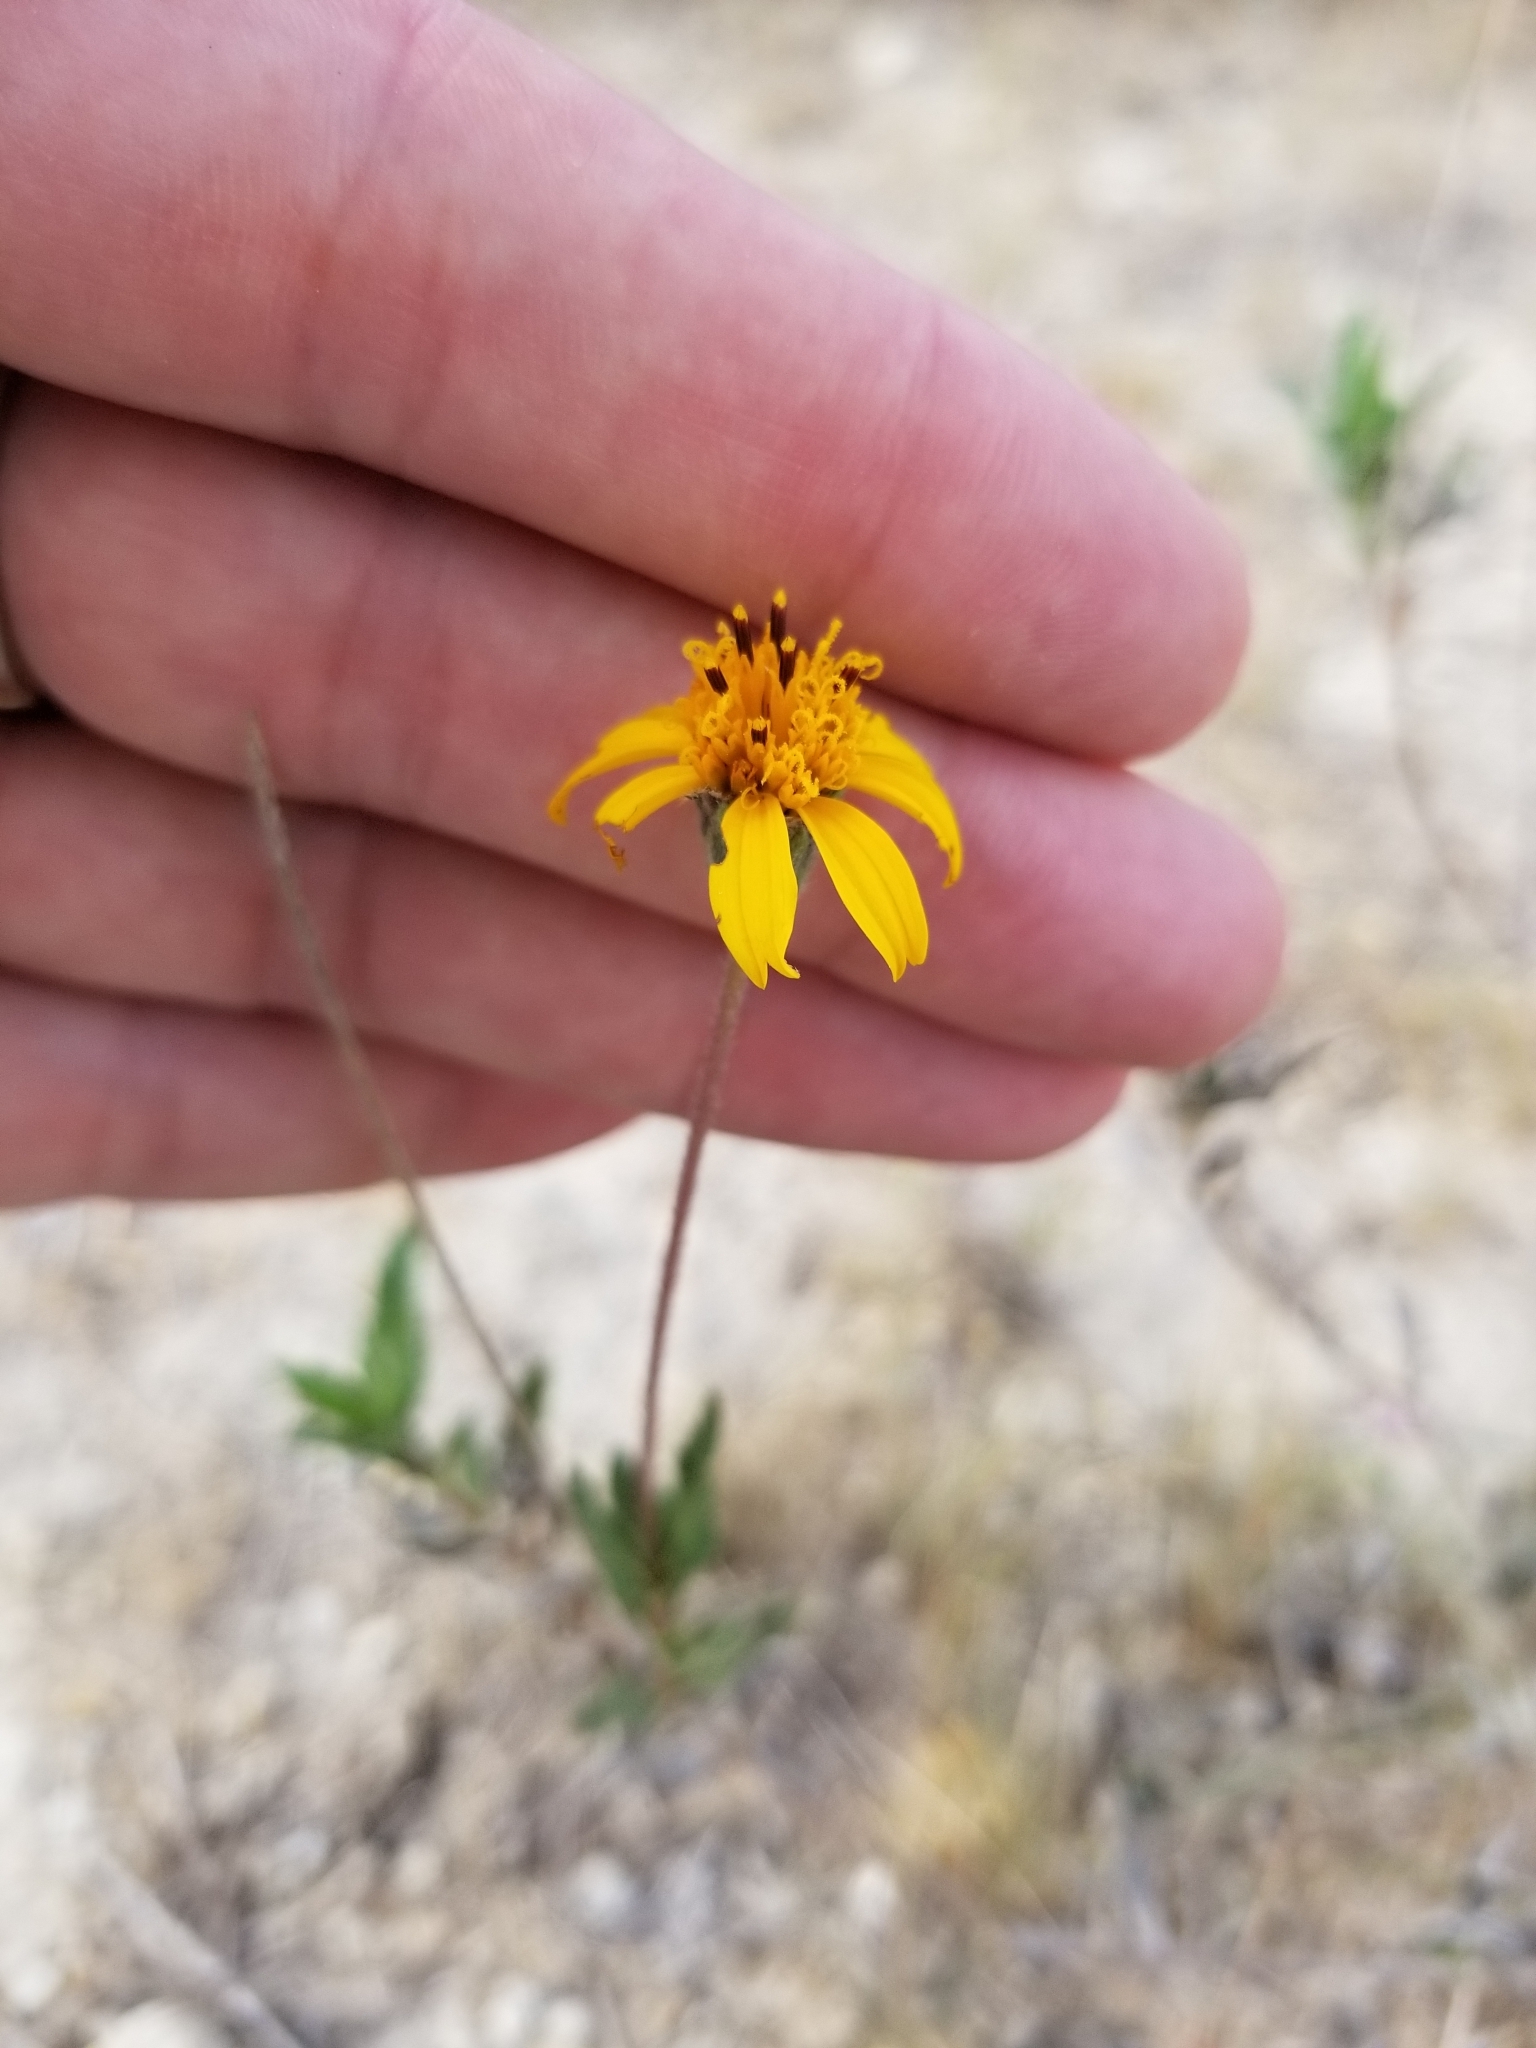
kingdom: Plantae
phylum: Tracheophyta
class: Magnoliopsida
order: Asterales
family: Asteraceae
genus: Wedelia
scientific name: Wedelia acapulcensis
